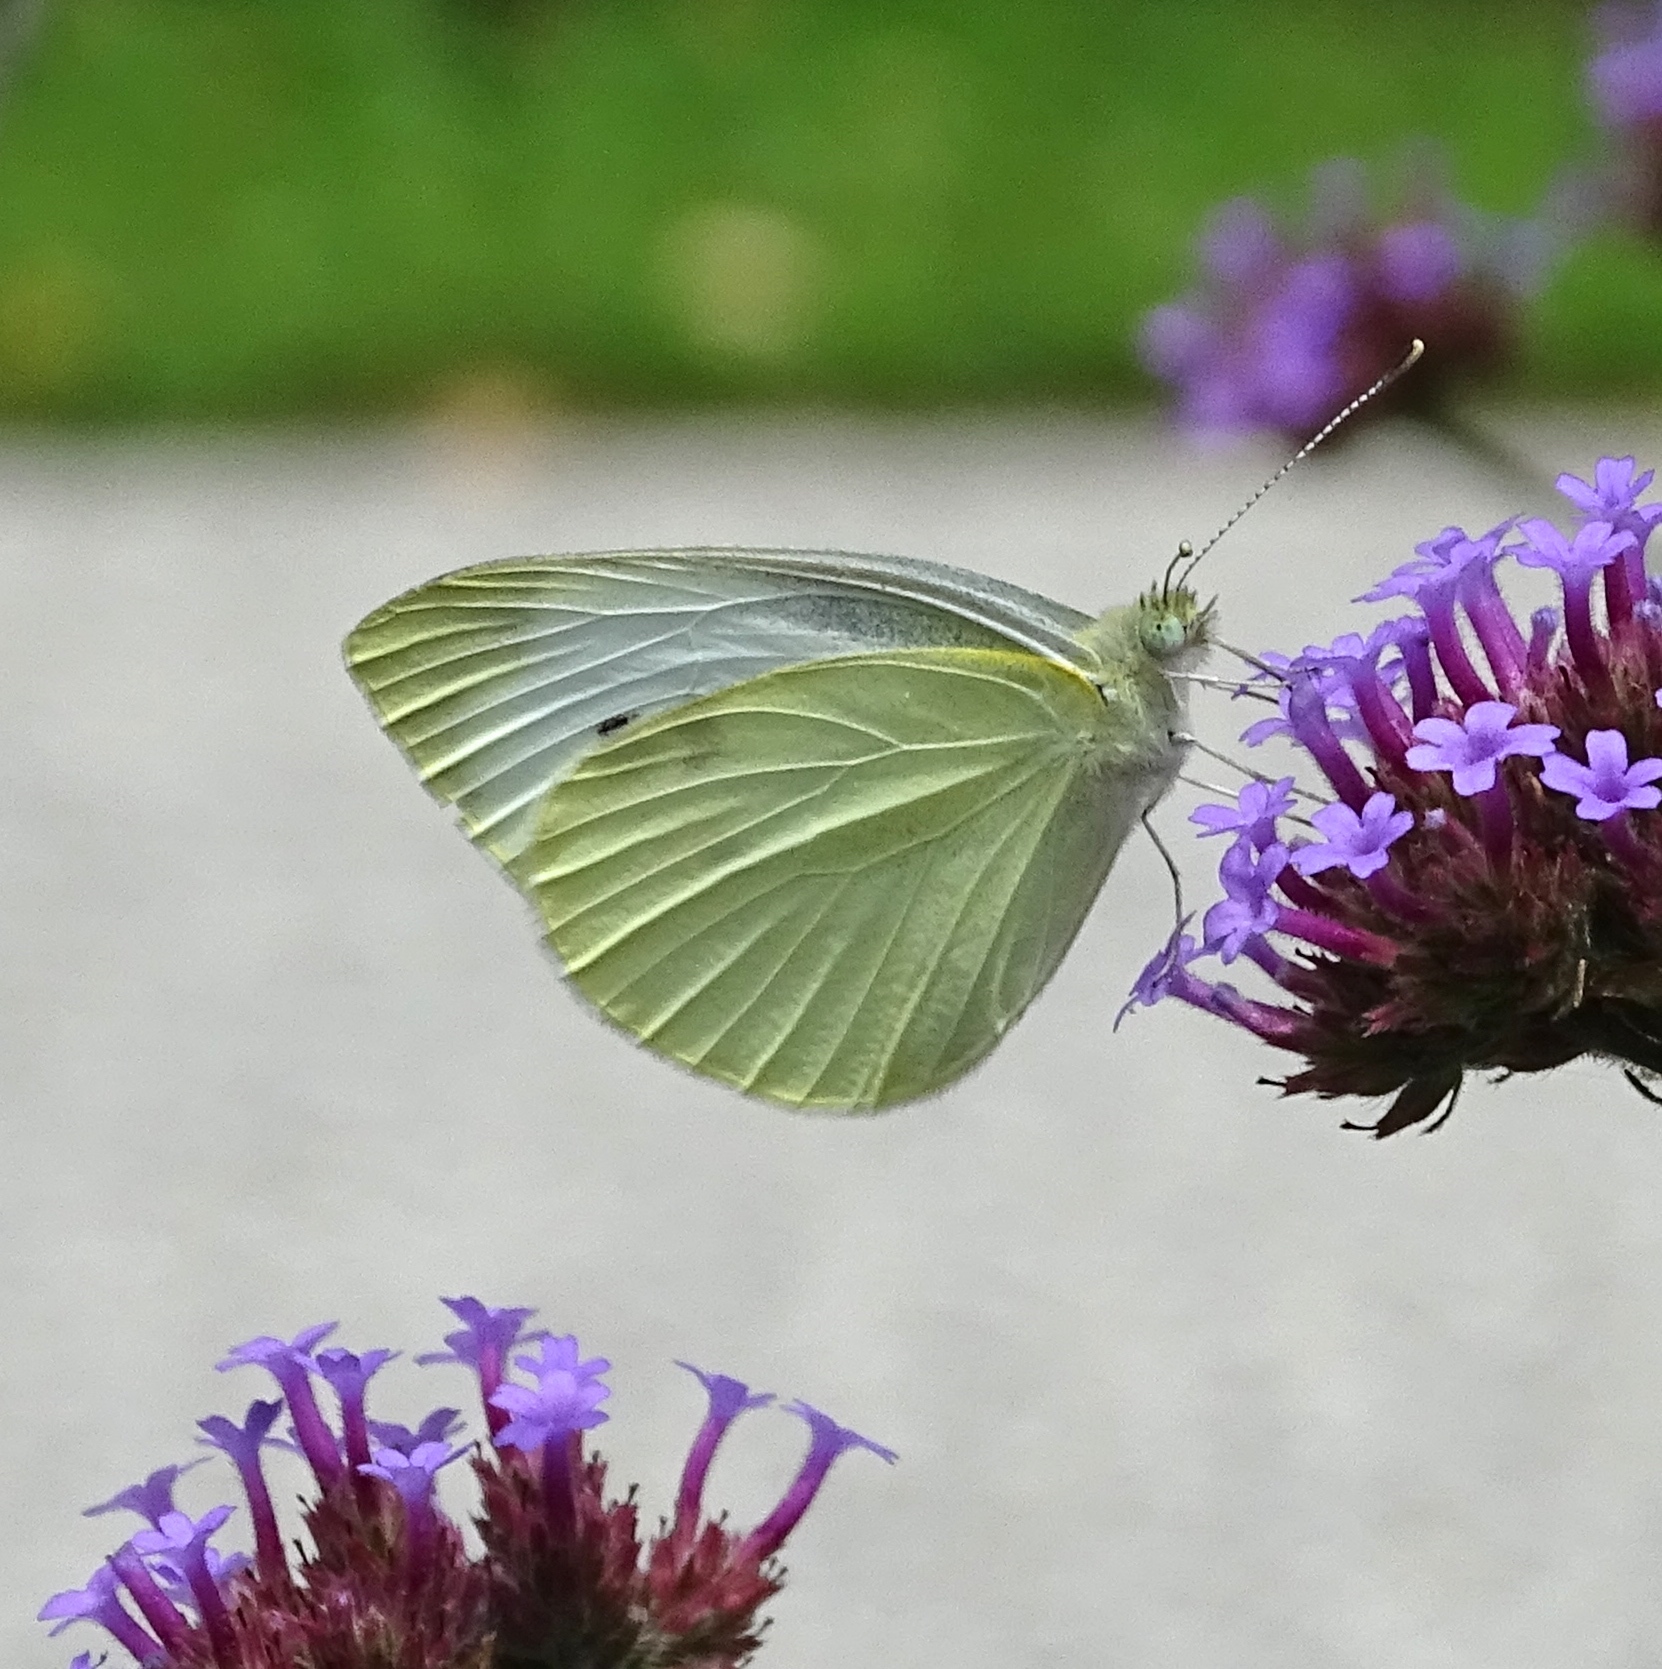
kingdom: Animalia
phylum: Arthropoda
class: Insecta
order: Lepidoptera
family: Pieridae
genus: Pieris
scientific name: Pieris rapae
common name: Small white
